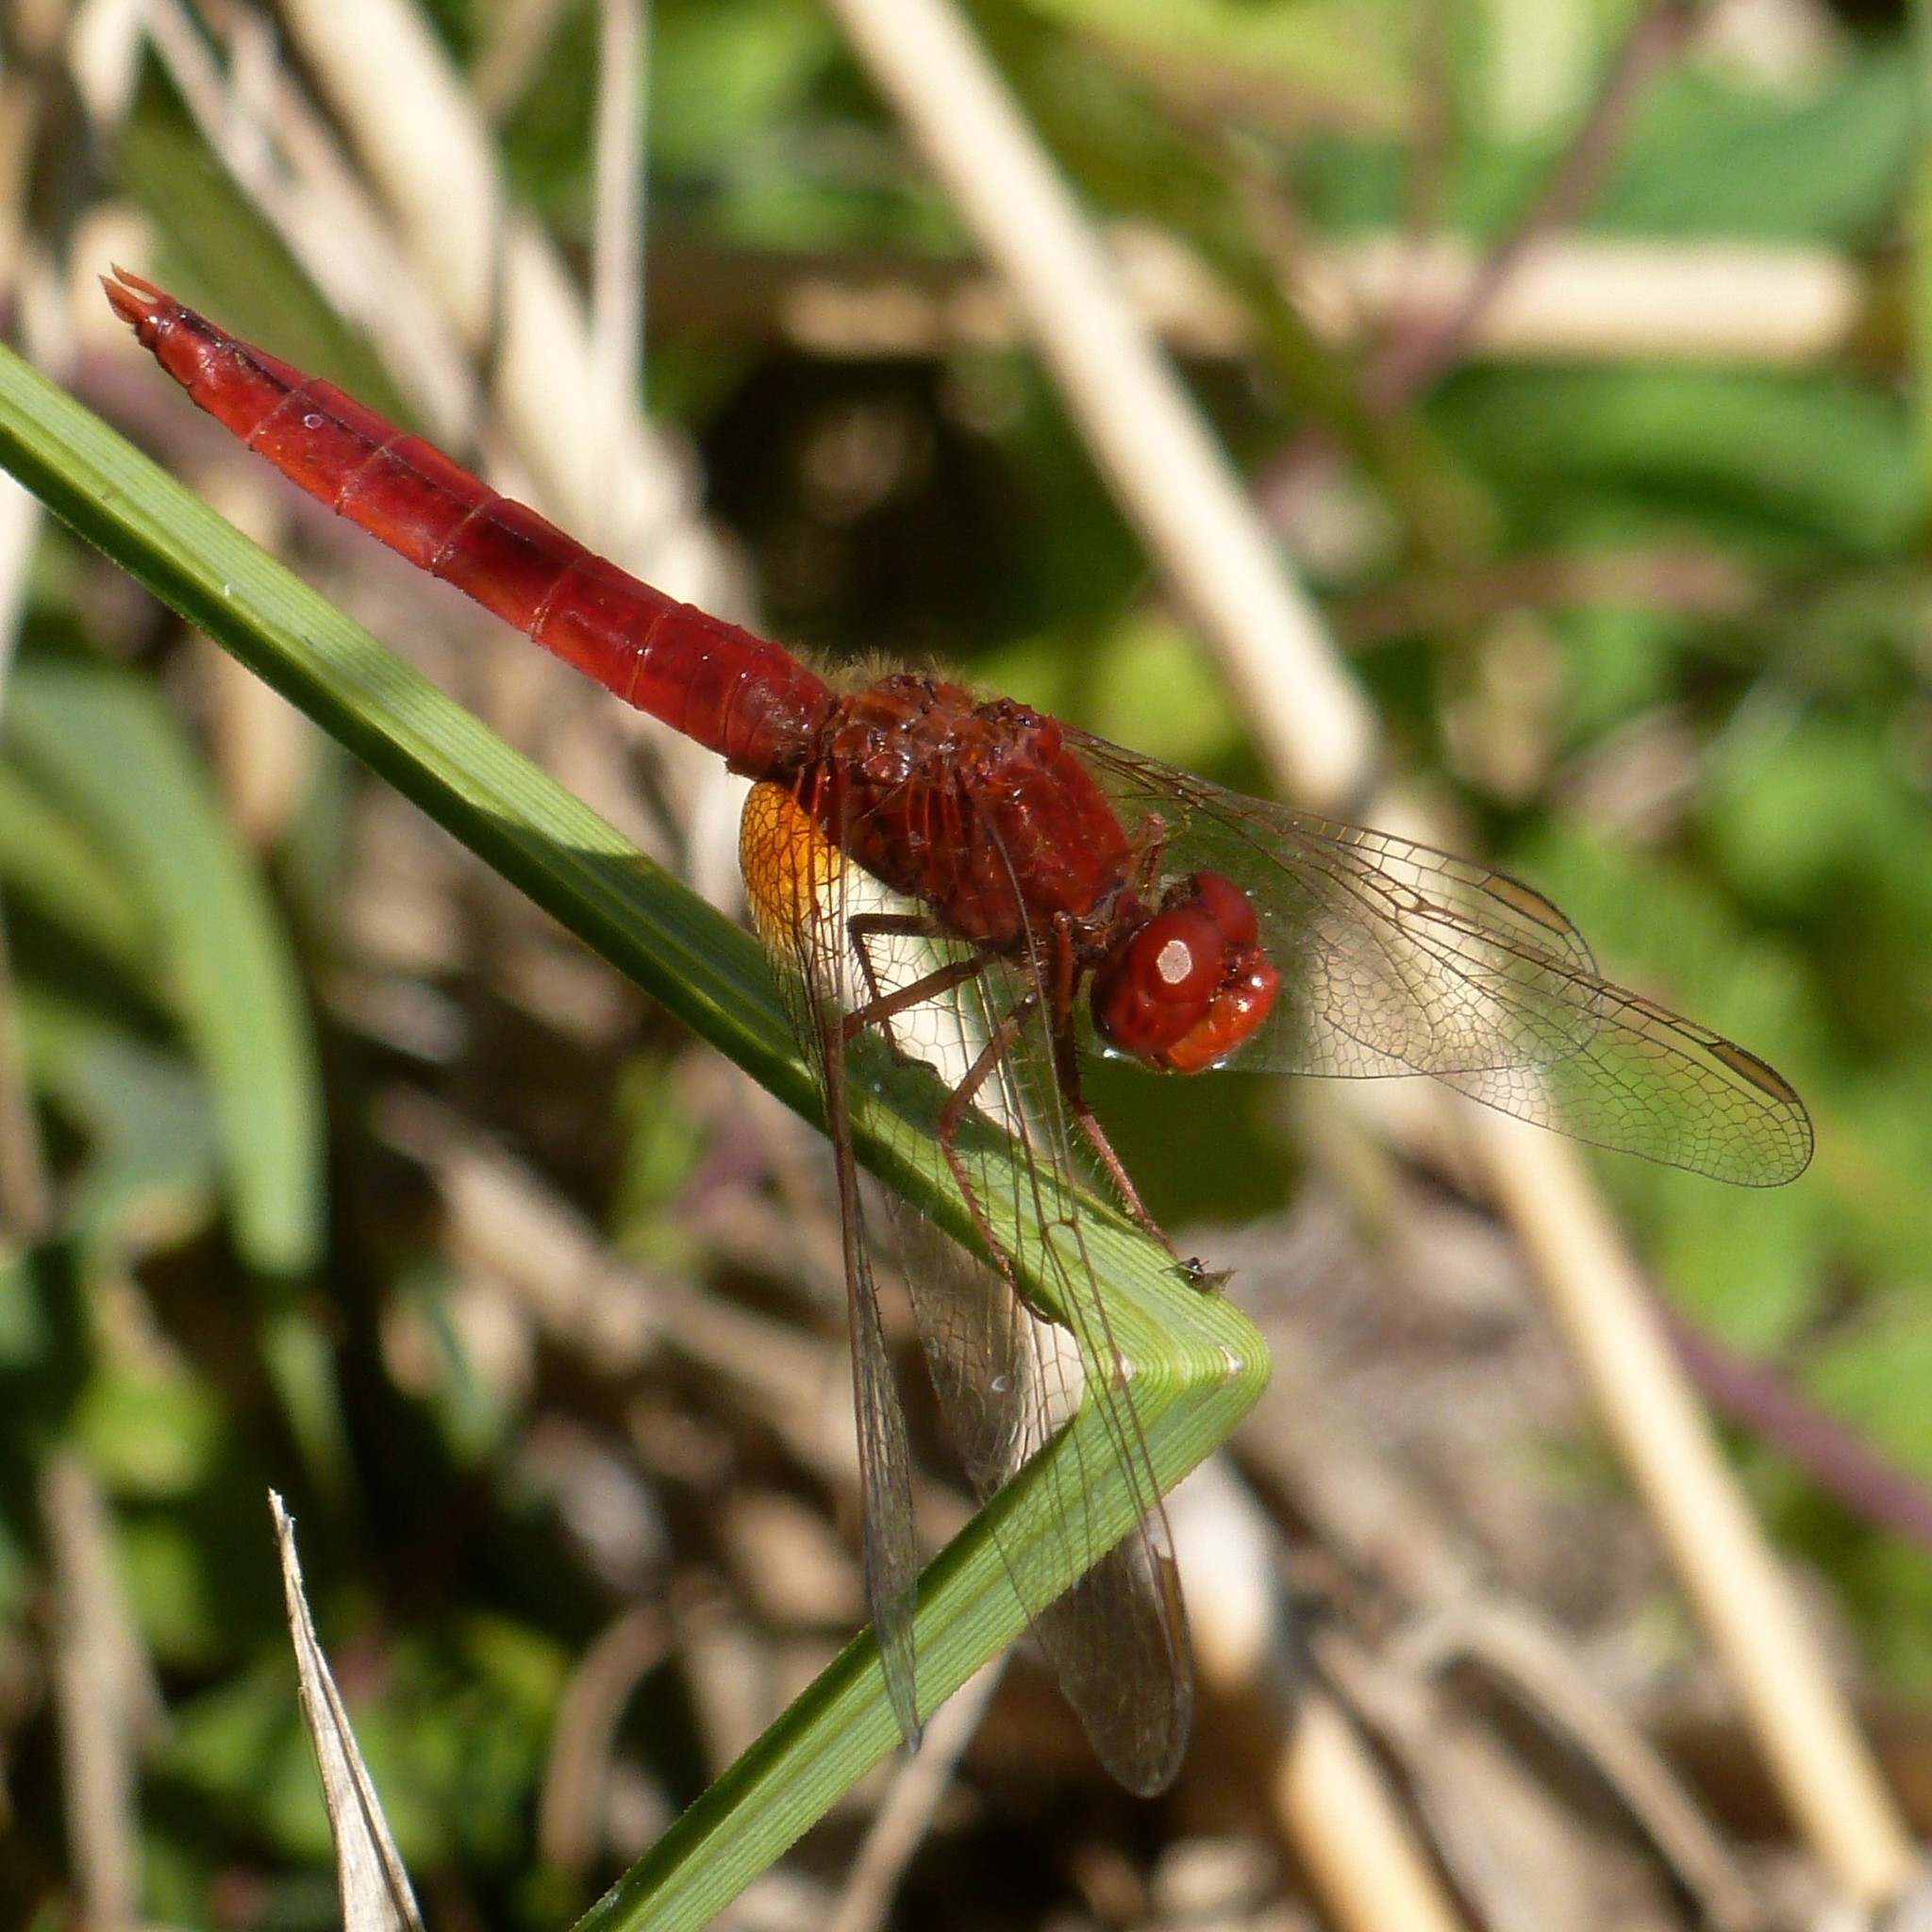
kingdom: Animalia
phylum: Arthropoda
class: Insecta
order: Odonata
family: Libellulidae
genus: Crocothemis
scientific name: Crocothemis erythraea
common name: Scarlet dragonfly
